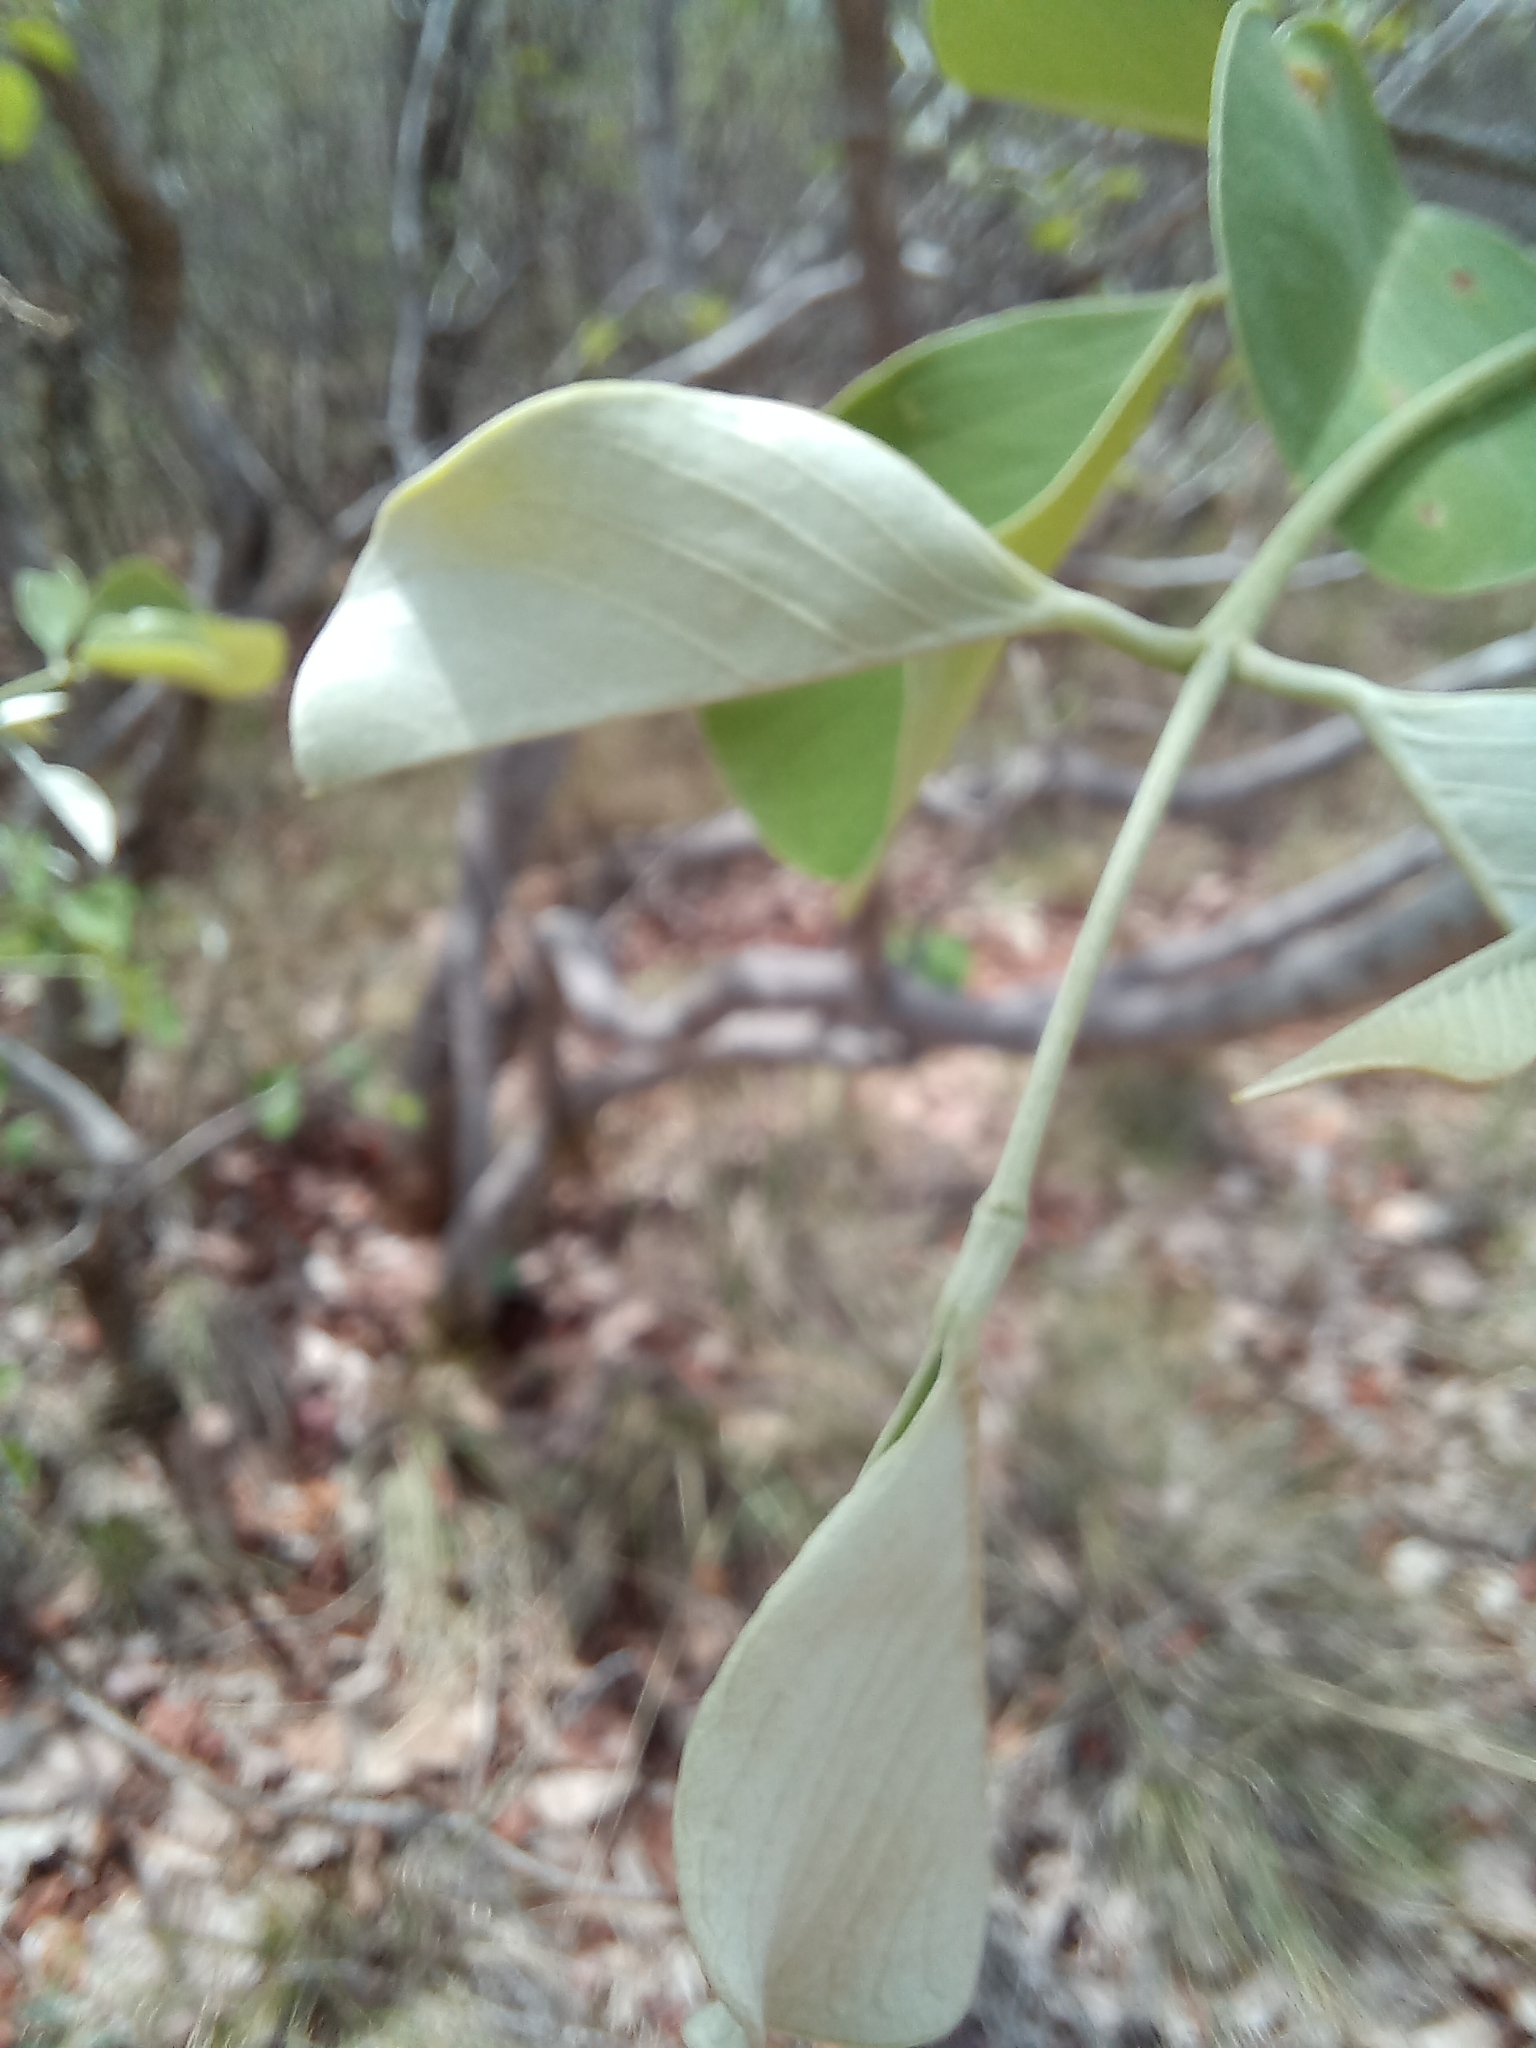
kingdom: Plantae
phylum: Tracheophyta
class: Magnoliopsida
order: Fabales
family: Fabaceae
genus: Pterocarpus
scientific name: Pterocarpus rotundifolius
